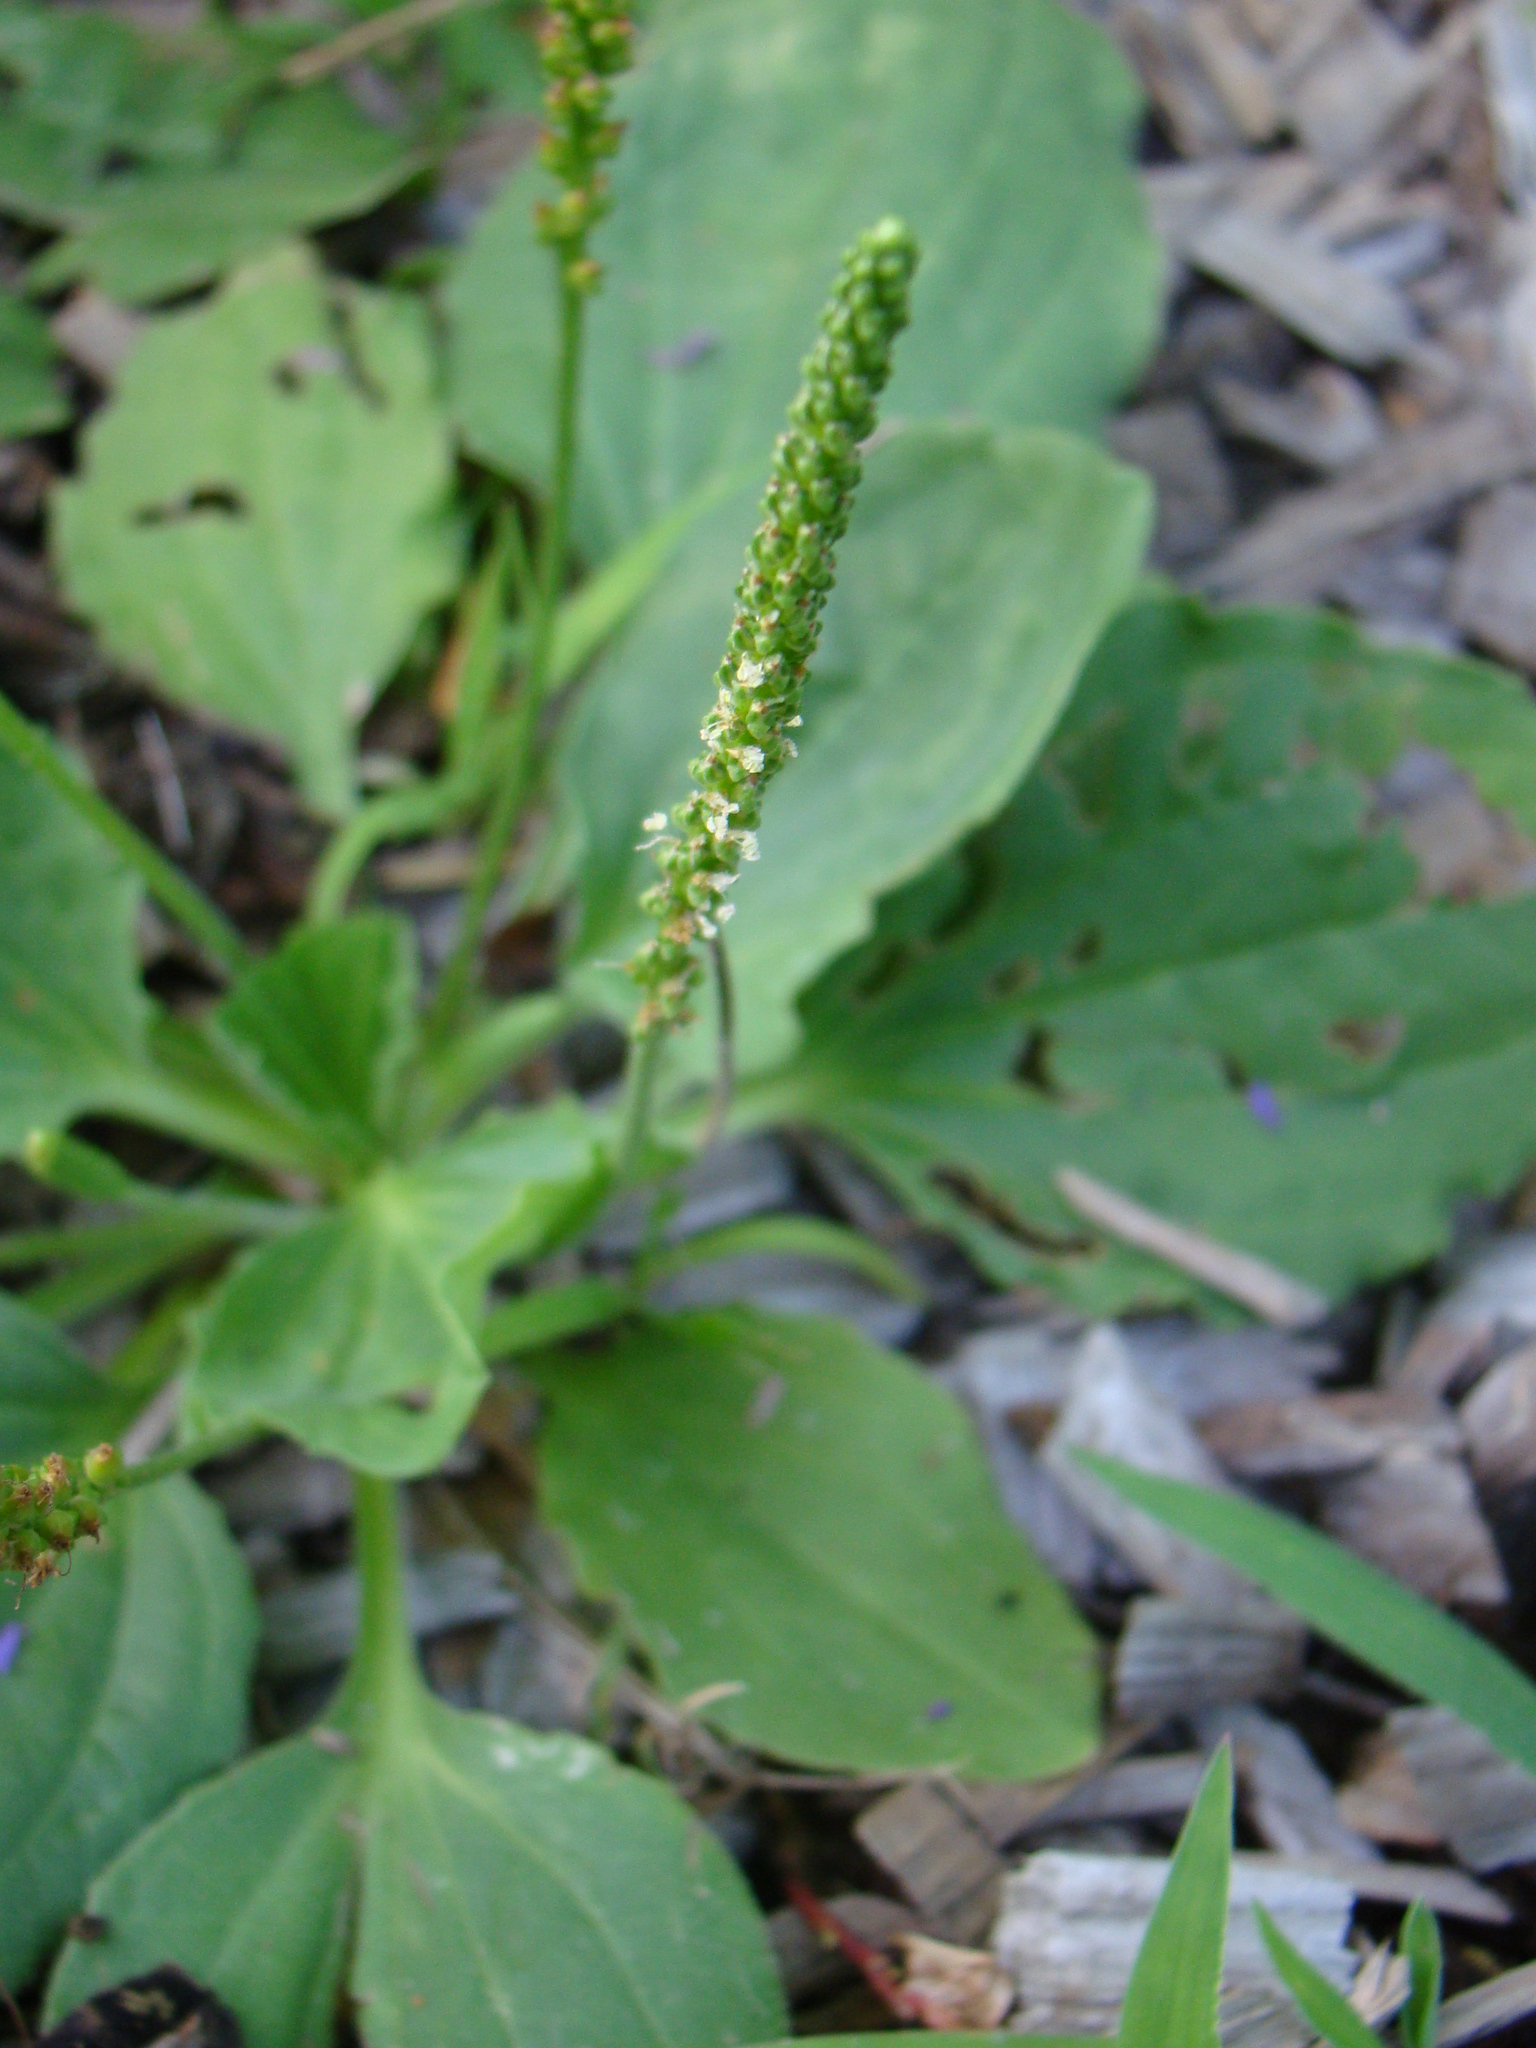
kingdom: Plantae
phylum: Tracheophyta
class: Magnoliopsida
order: Lamiales
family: Plantaginaceae
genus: Plantago
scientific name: Plantago major
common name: Common plantain
